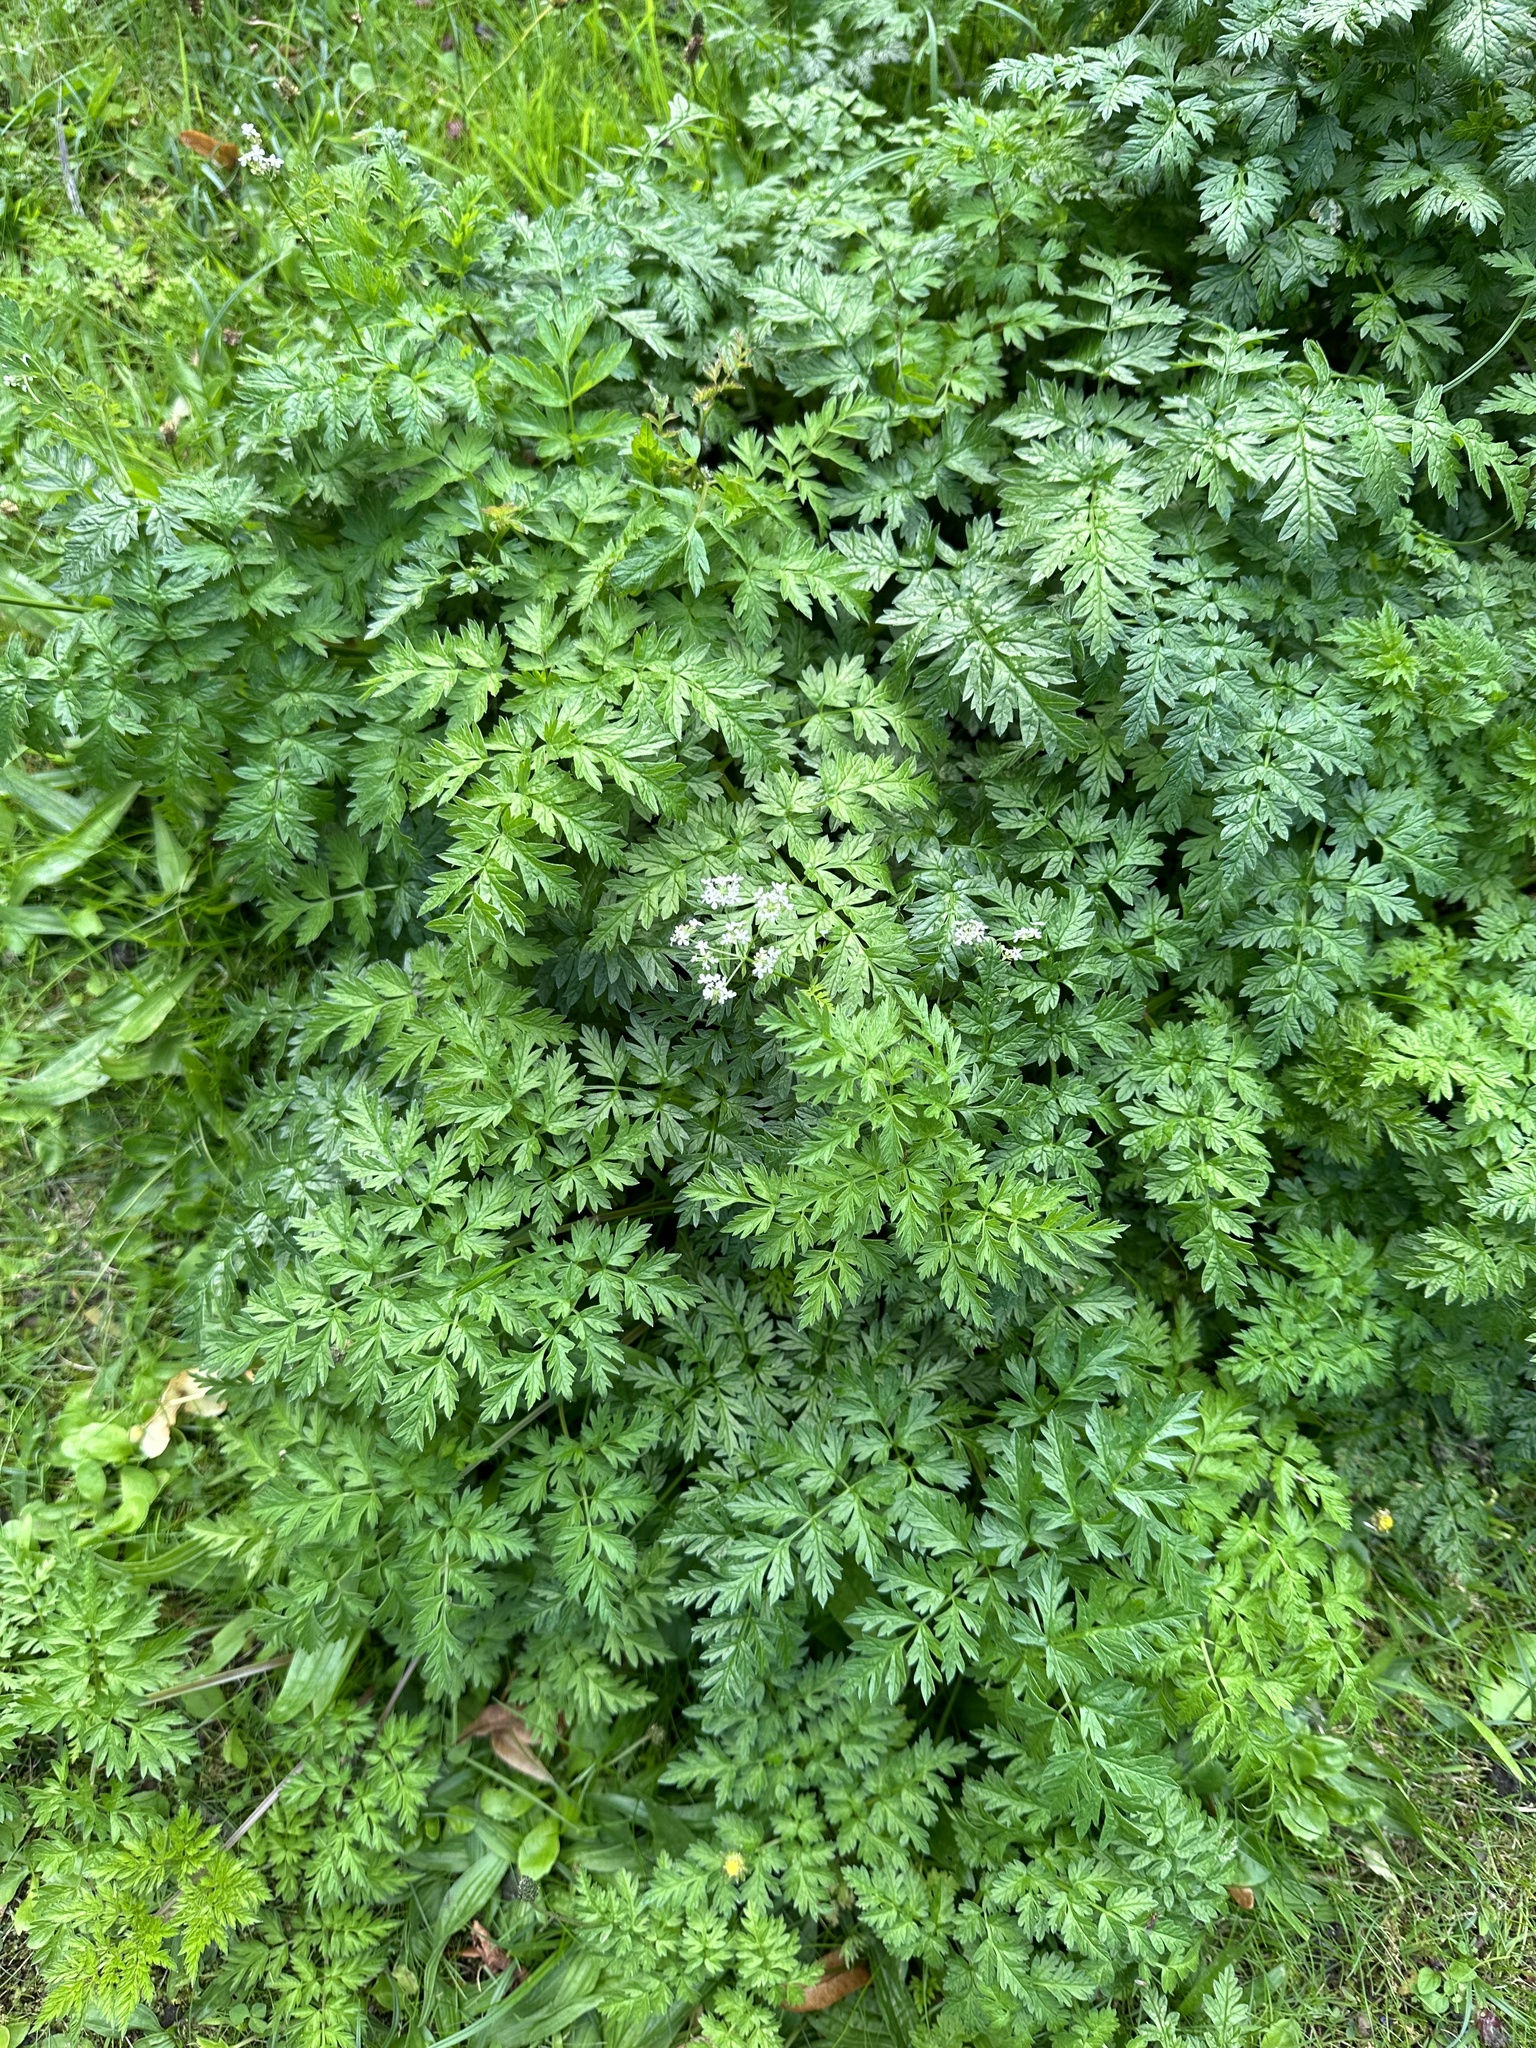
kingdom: Plantae
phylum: Tracheophyta
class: Magnoliopsida
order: Apiales
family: Apiaceae
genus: Anthriscus
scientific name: Anthriscus sylvestris
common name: Cow parsley
